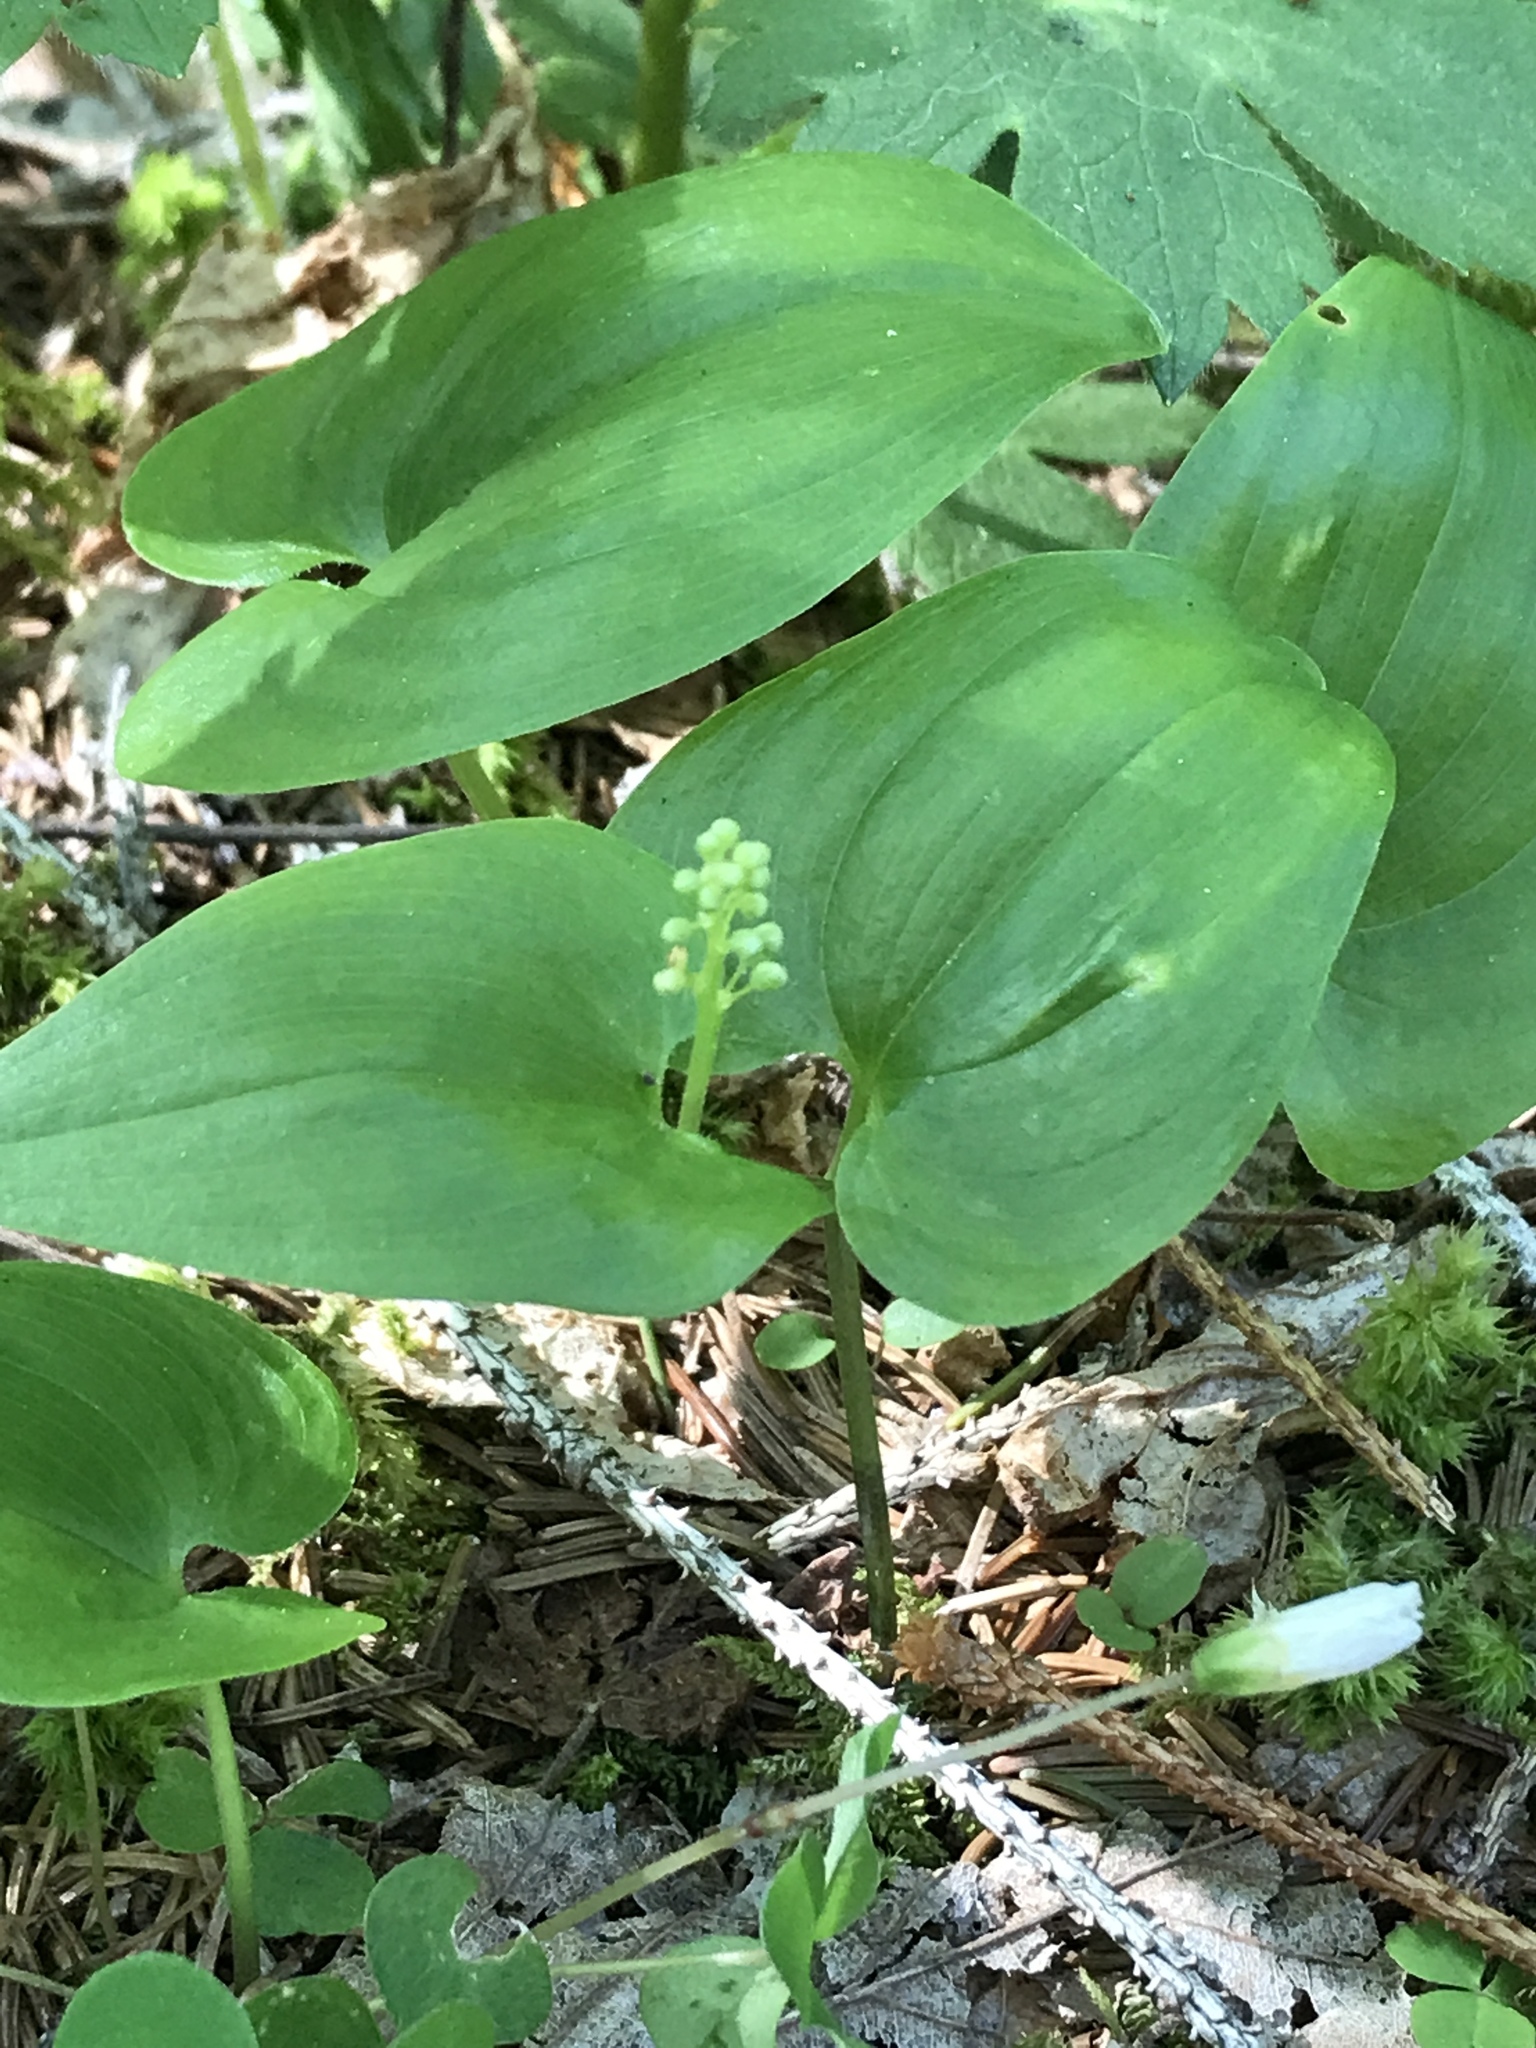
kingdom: Plantae
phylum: Tracheophyta
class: Liliopsida
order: Asparagales
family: Asparagaceae
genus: Maianthemum
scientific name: Maianthemum bifolium
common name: May lily
